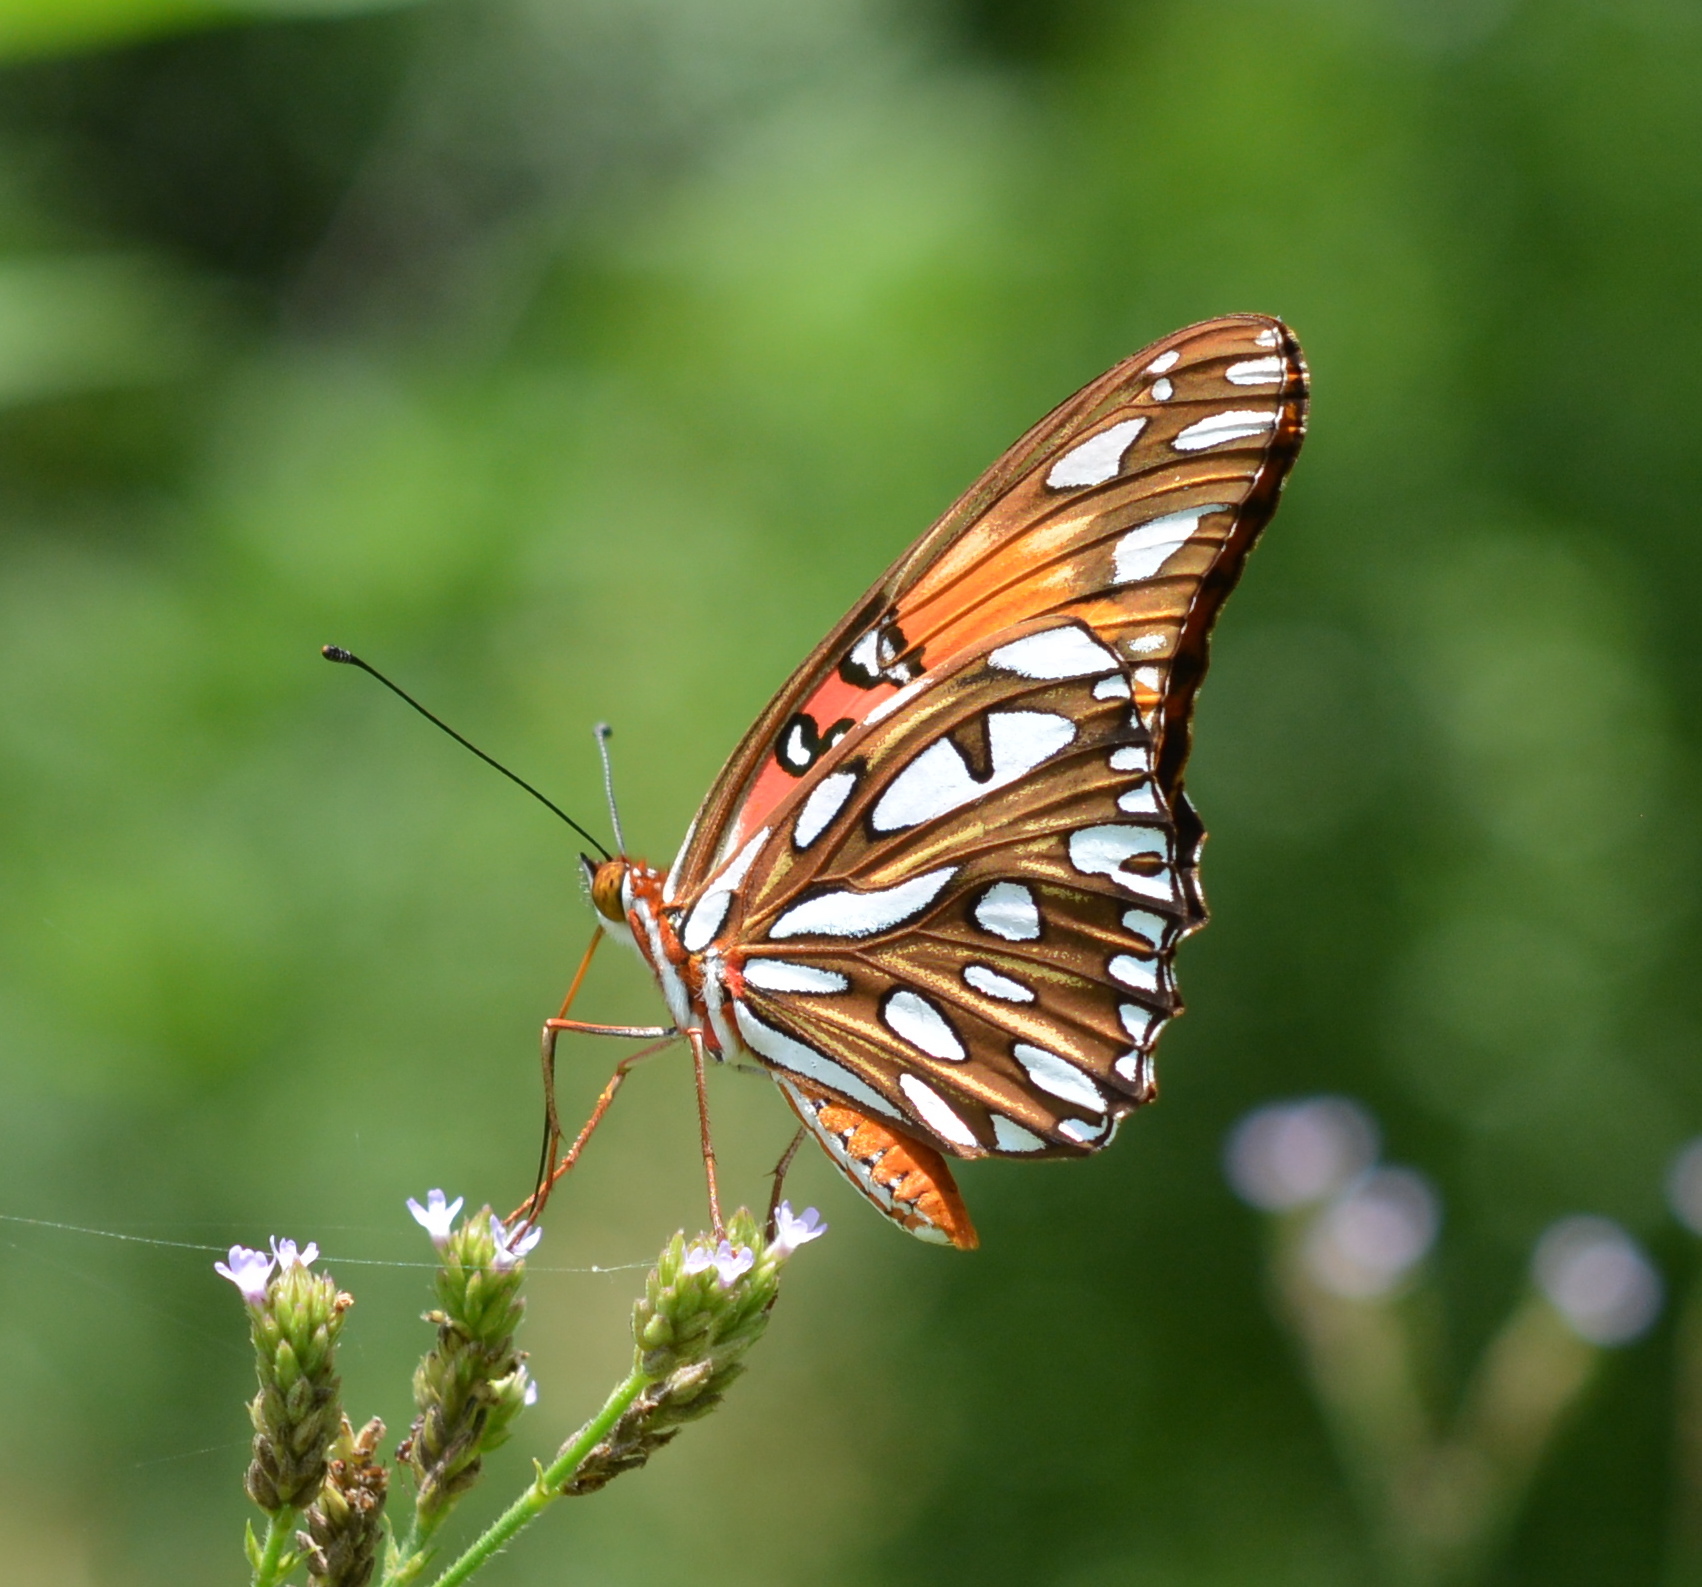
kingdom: Animalia
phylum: Arthropoda
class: Insecta
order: Lepidoptera
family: Nymphalidae
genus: Dione
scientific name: Dione vanillae
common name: Gulf fritillary
